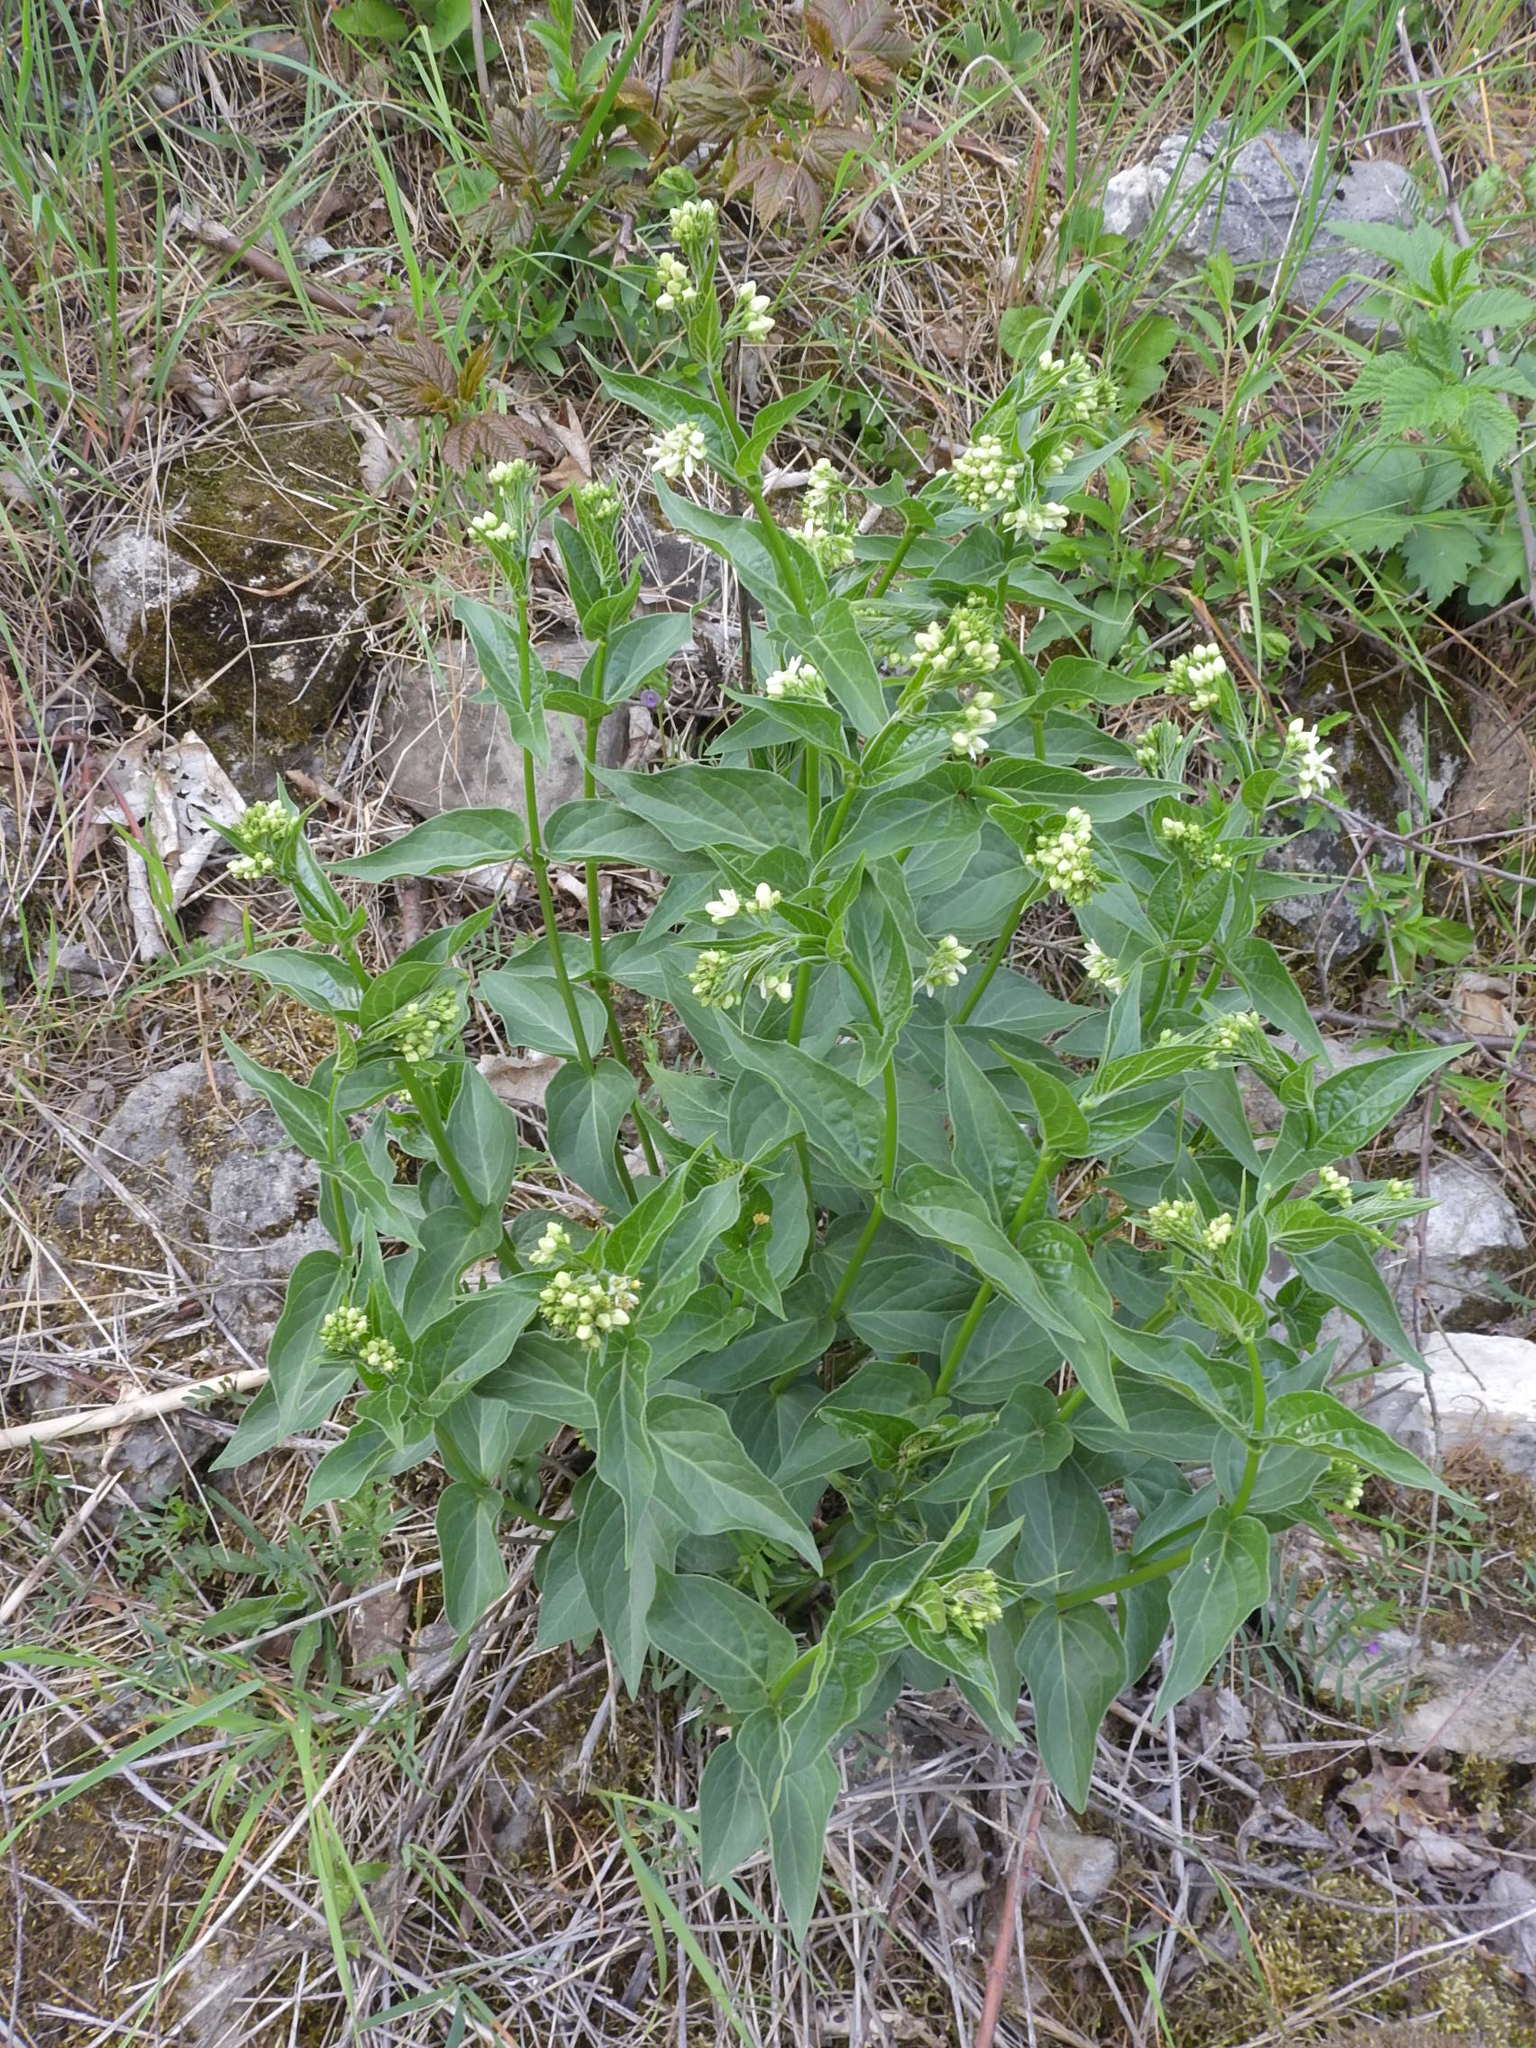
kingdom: Plantae
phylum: Tracheophyta
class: Magnoliopsida
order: Gentianales
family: Apocynaceae
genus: Vincetoxicum
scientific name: Vincetoxicum hirundinaria
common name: White swallowwort
